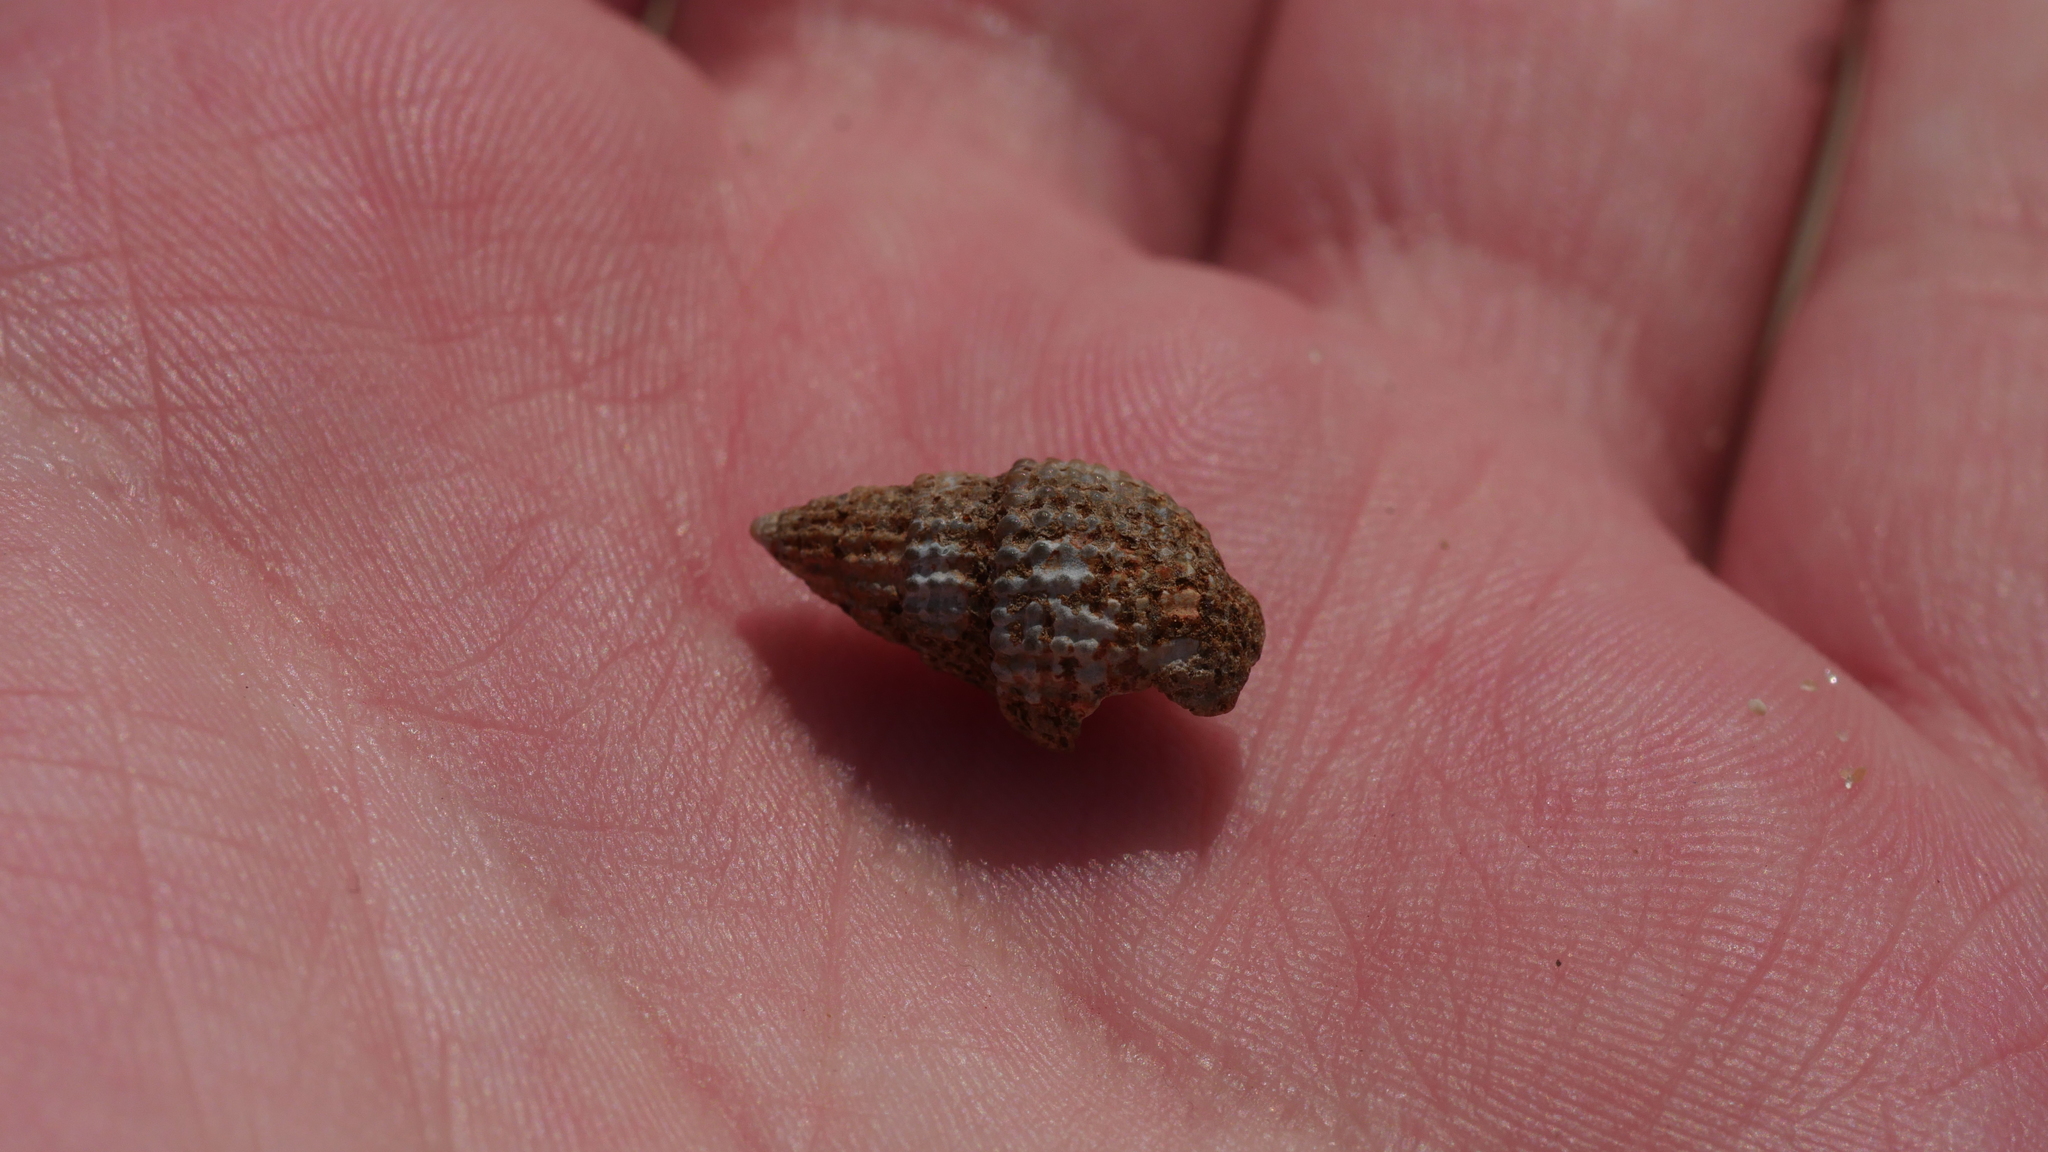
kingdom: Animalia
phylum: Mollusca
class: Gastropoda
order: Neogastropoda
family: Nassariidae
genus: Ilyanassa
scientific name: Ilyanassa trivittata
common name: Three-line mudsnail
